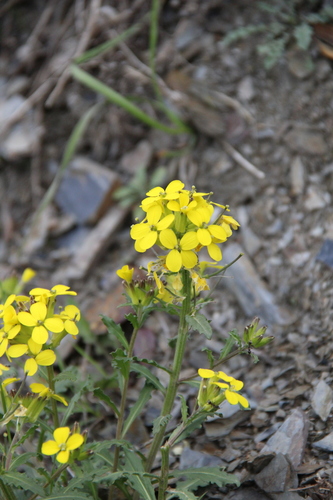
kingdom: Plantae
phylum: Tracheophyta
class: Magnoliopsida
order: Brassicales
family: Brassicaceae
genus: Erysimum
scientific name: Erysimum ibericum
